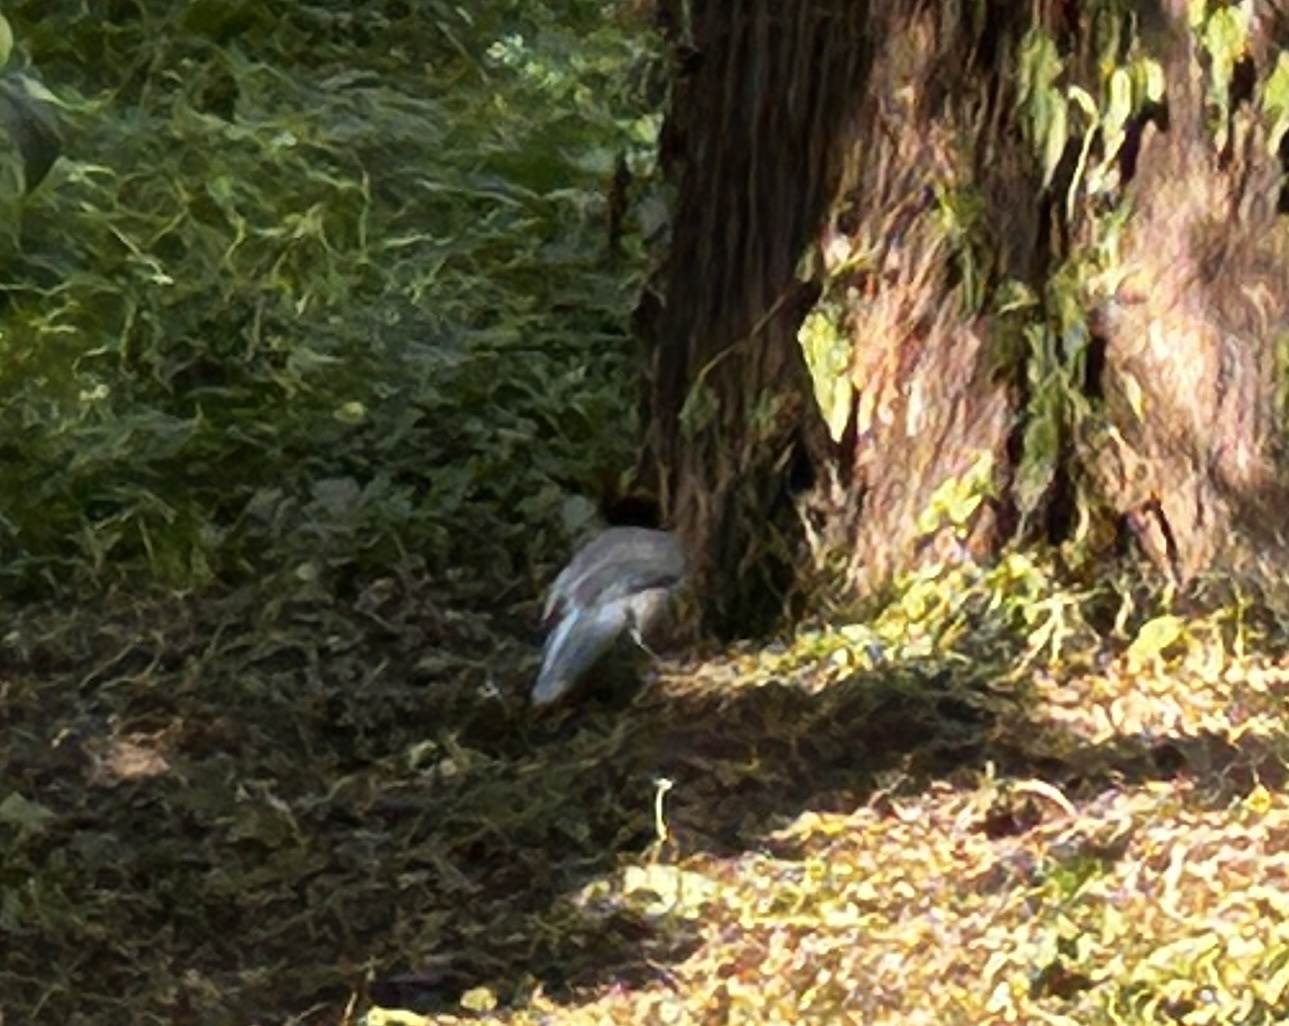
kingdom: Animalia
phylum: Chordata
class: Aves
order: Passeriformes
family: Corvidae
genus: Cyanopica
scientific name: Cyanopica cyanus
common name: Azure-winged magpie
